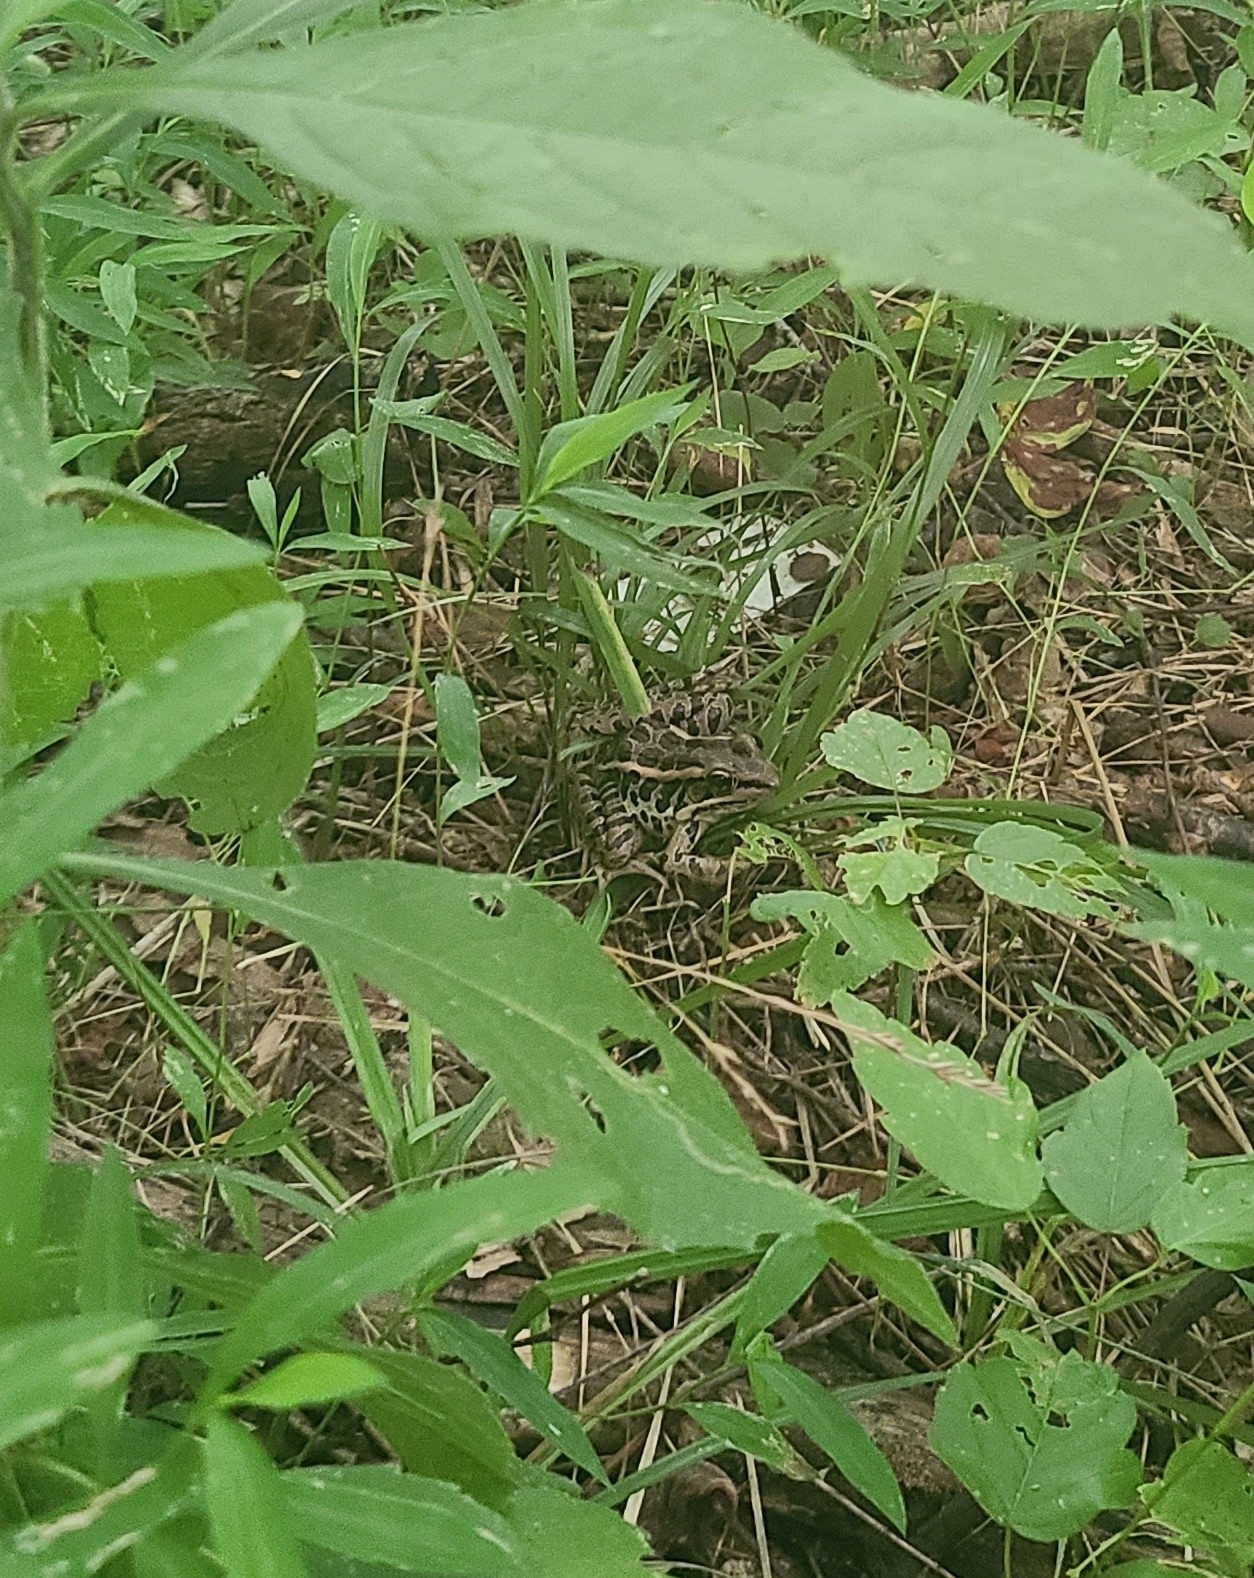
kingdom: Animalia
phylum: Chordata
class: Amphibia
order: Anura
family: Ranidae
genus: Lithobates
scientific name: Lithobates palustris
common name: Pickerel frog
